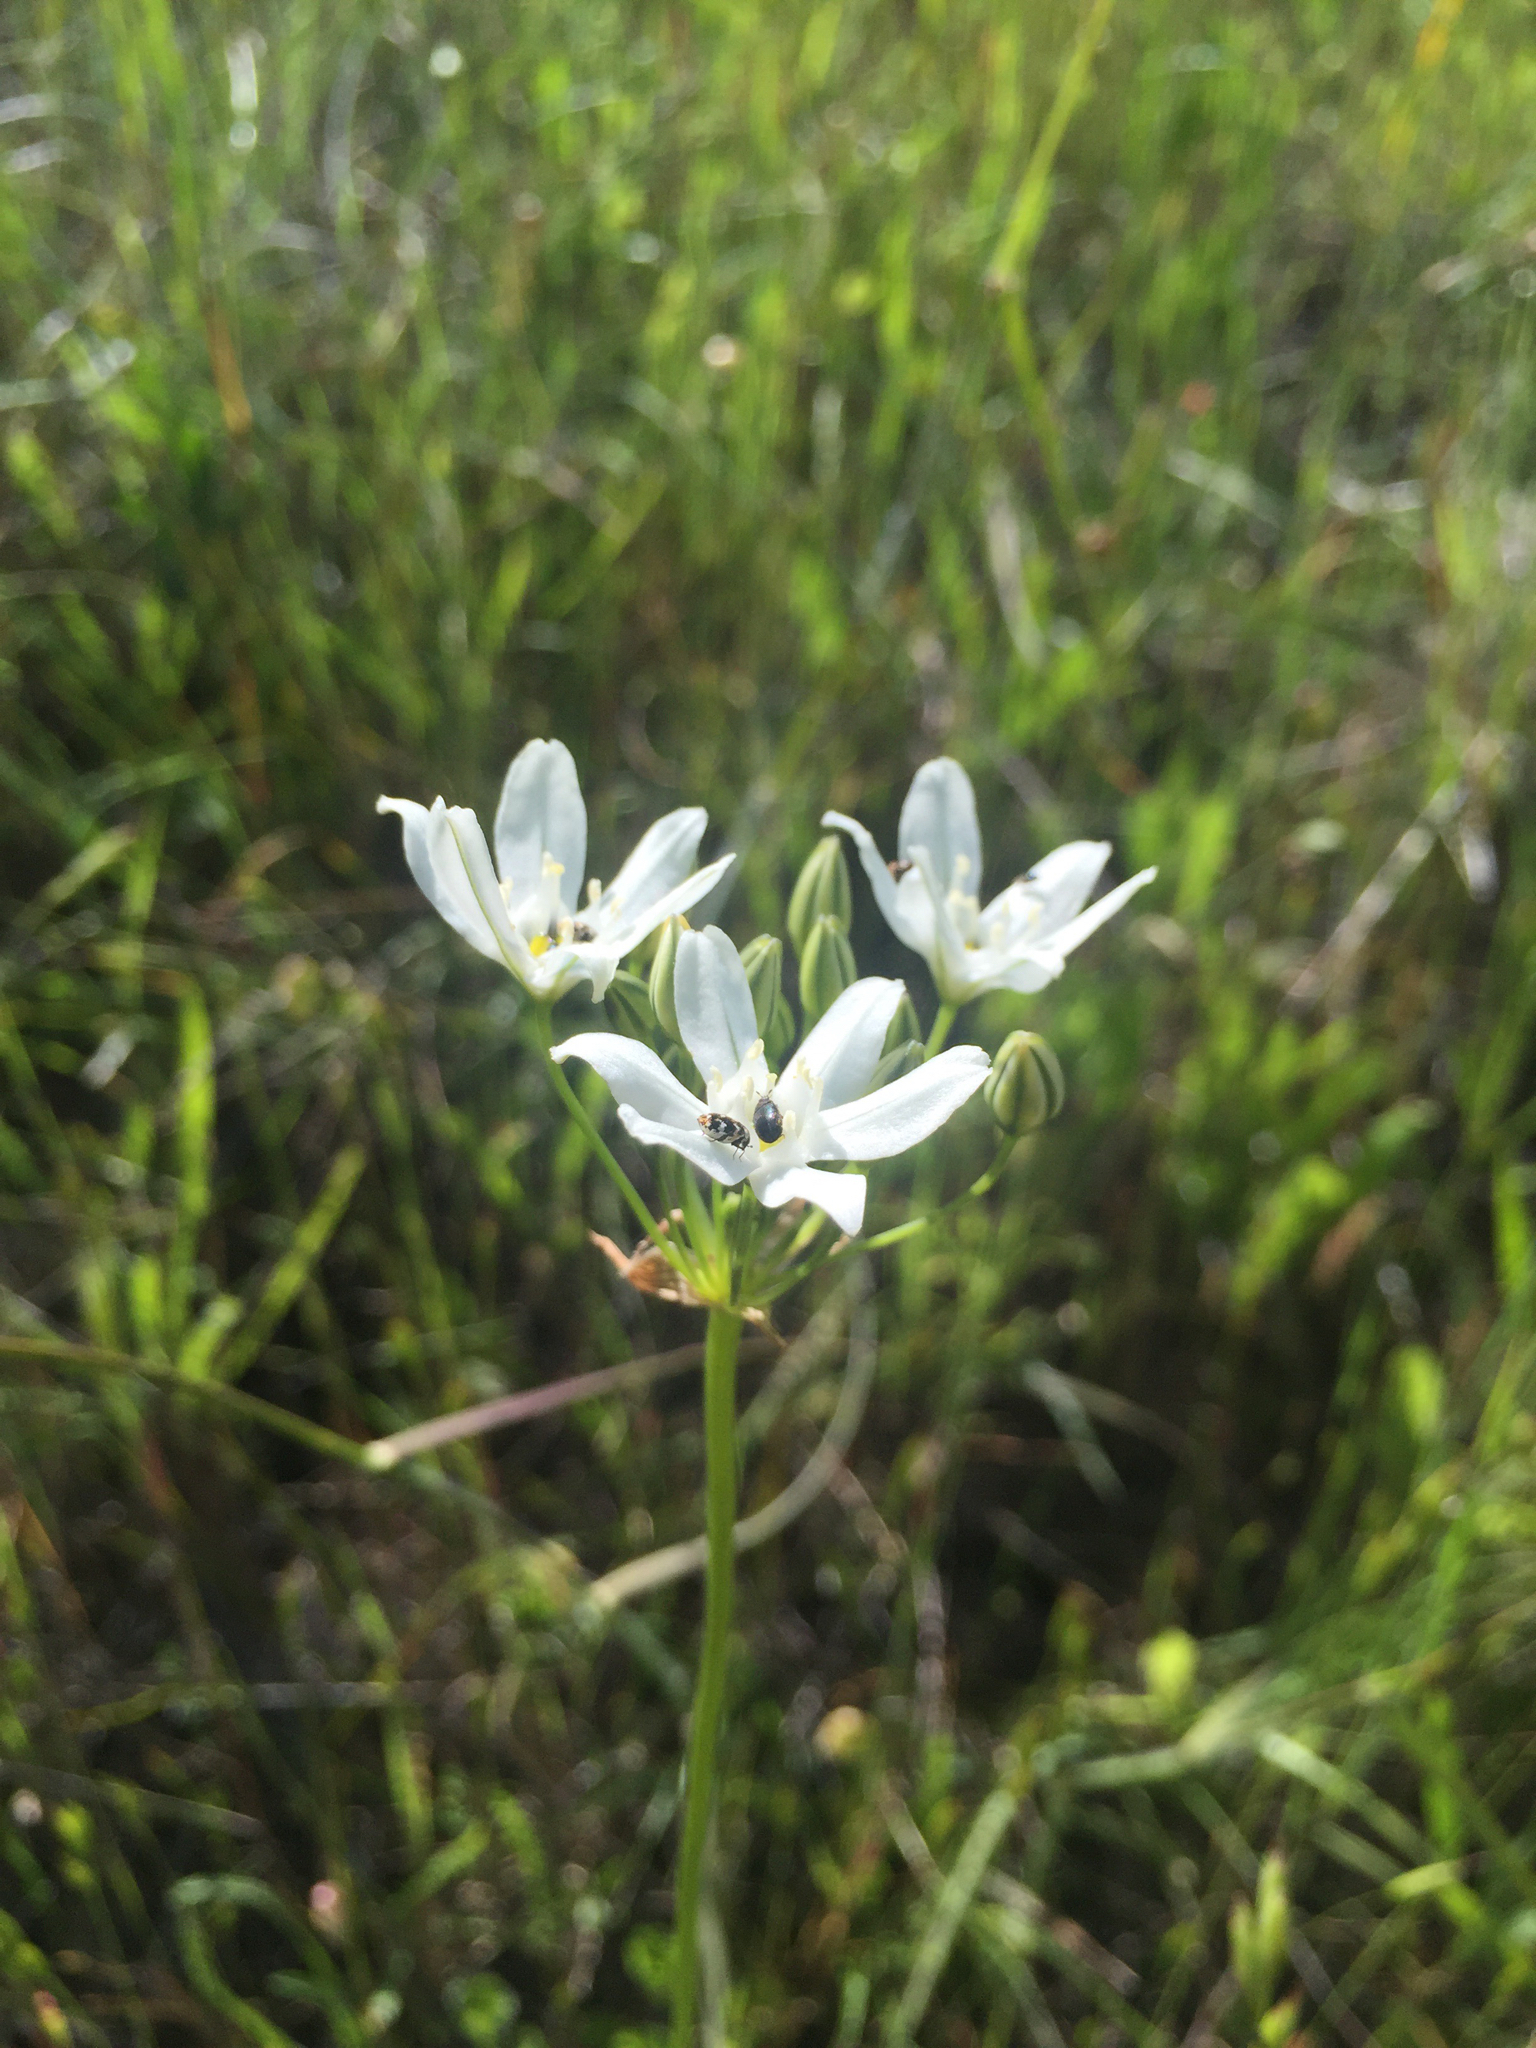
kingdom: Plantae
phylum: Tracheophyta
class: Liliopsida
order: Asparagales
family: Asparagaceae
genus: Triteleia
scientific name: Triteleia hyacinthina
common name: White brodiaea
